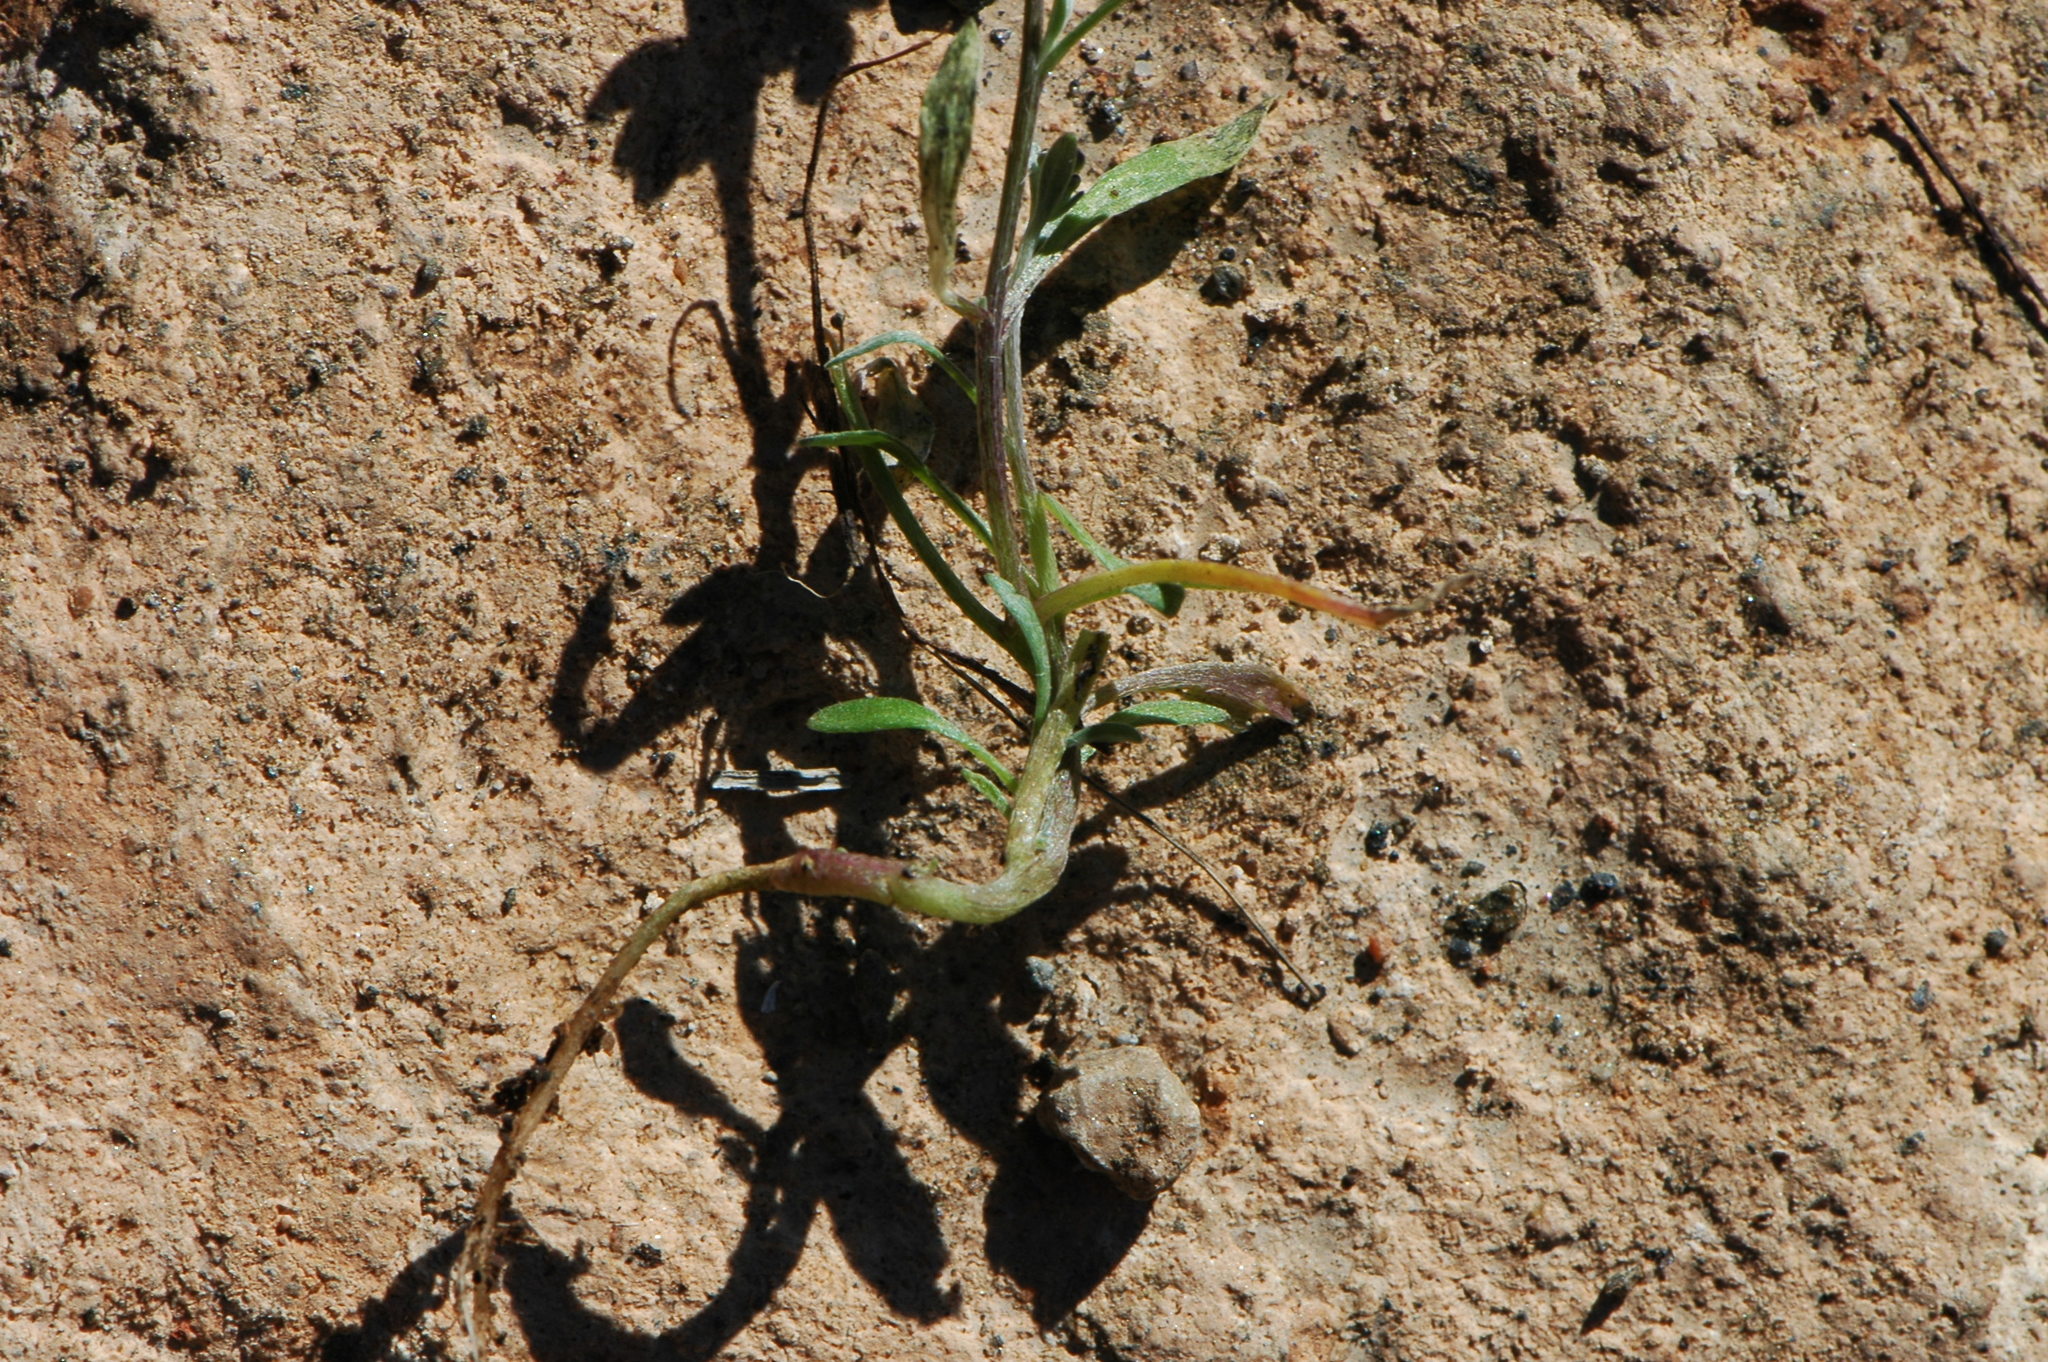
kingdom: Plantae
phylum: Tracheophyta
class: Magnoliopsida
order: Brassicales
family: Brassicaceae
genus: Lobularia
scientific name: Lobularia maritima
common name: Sweet alison
